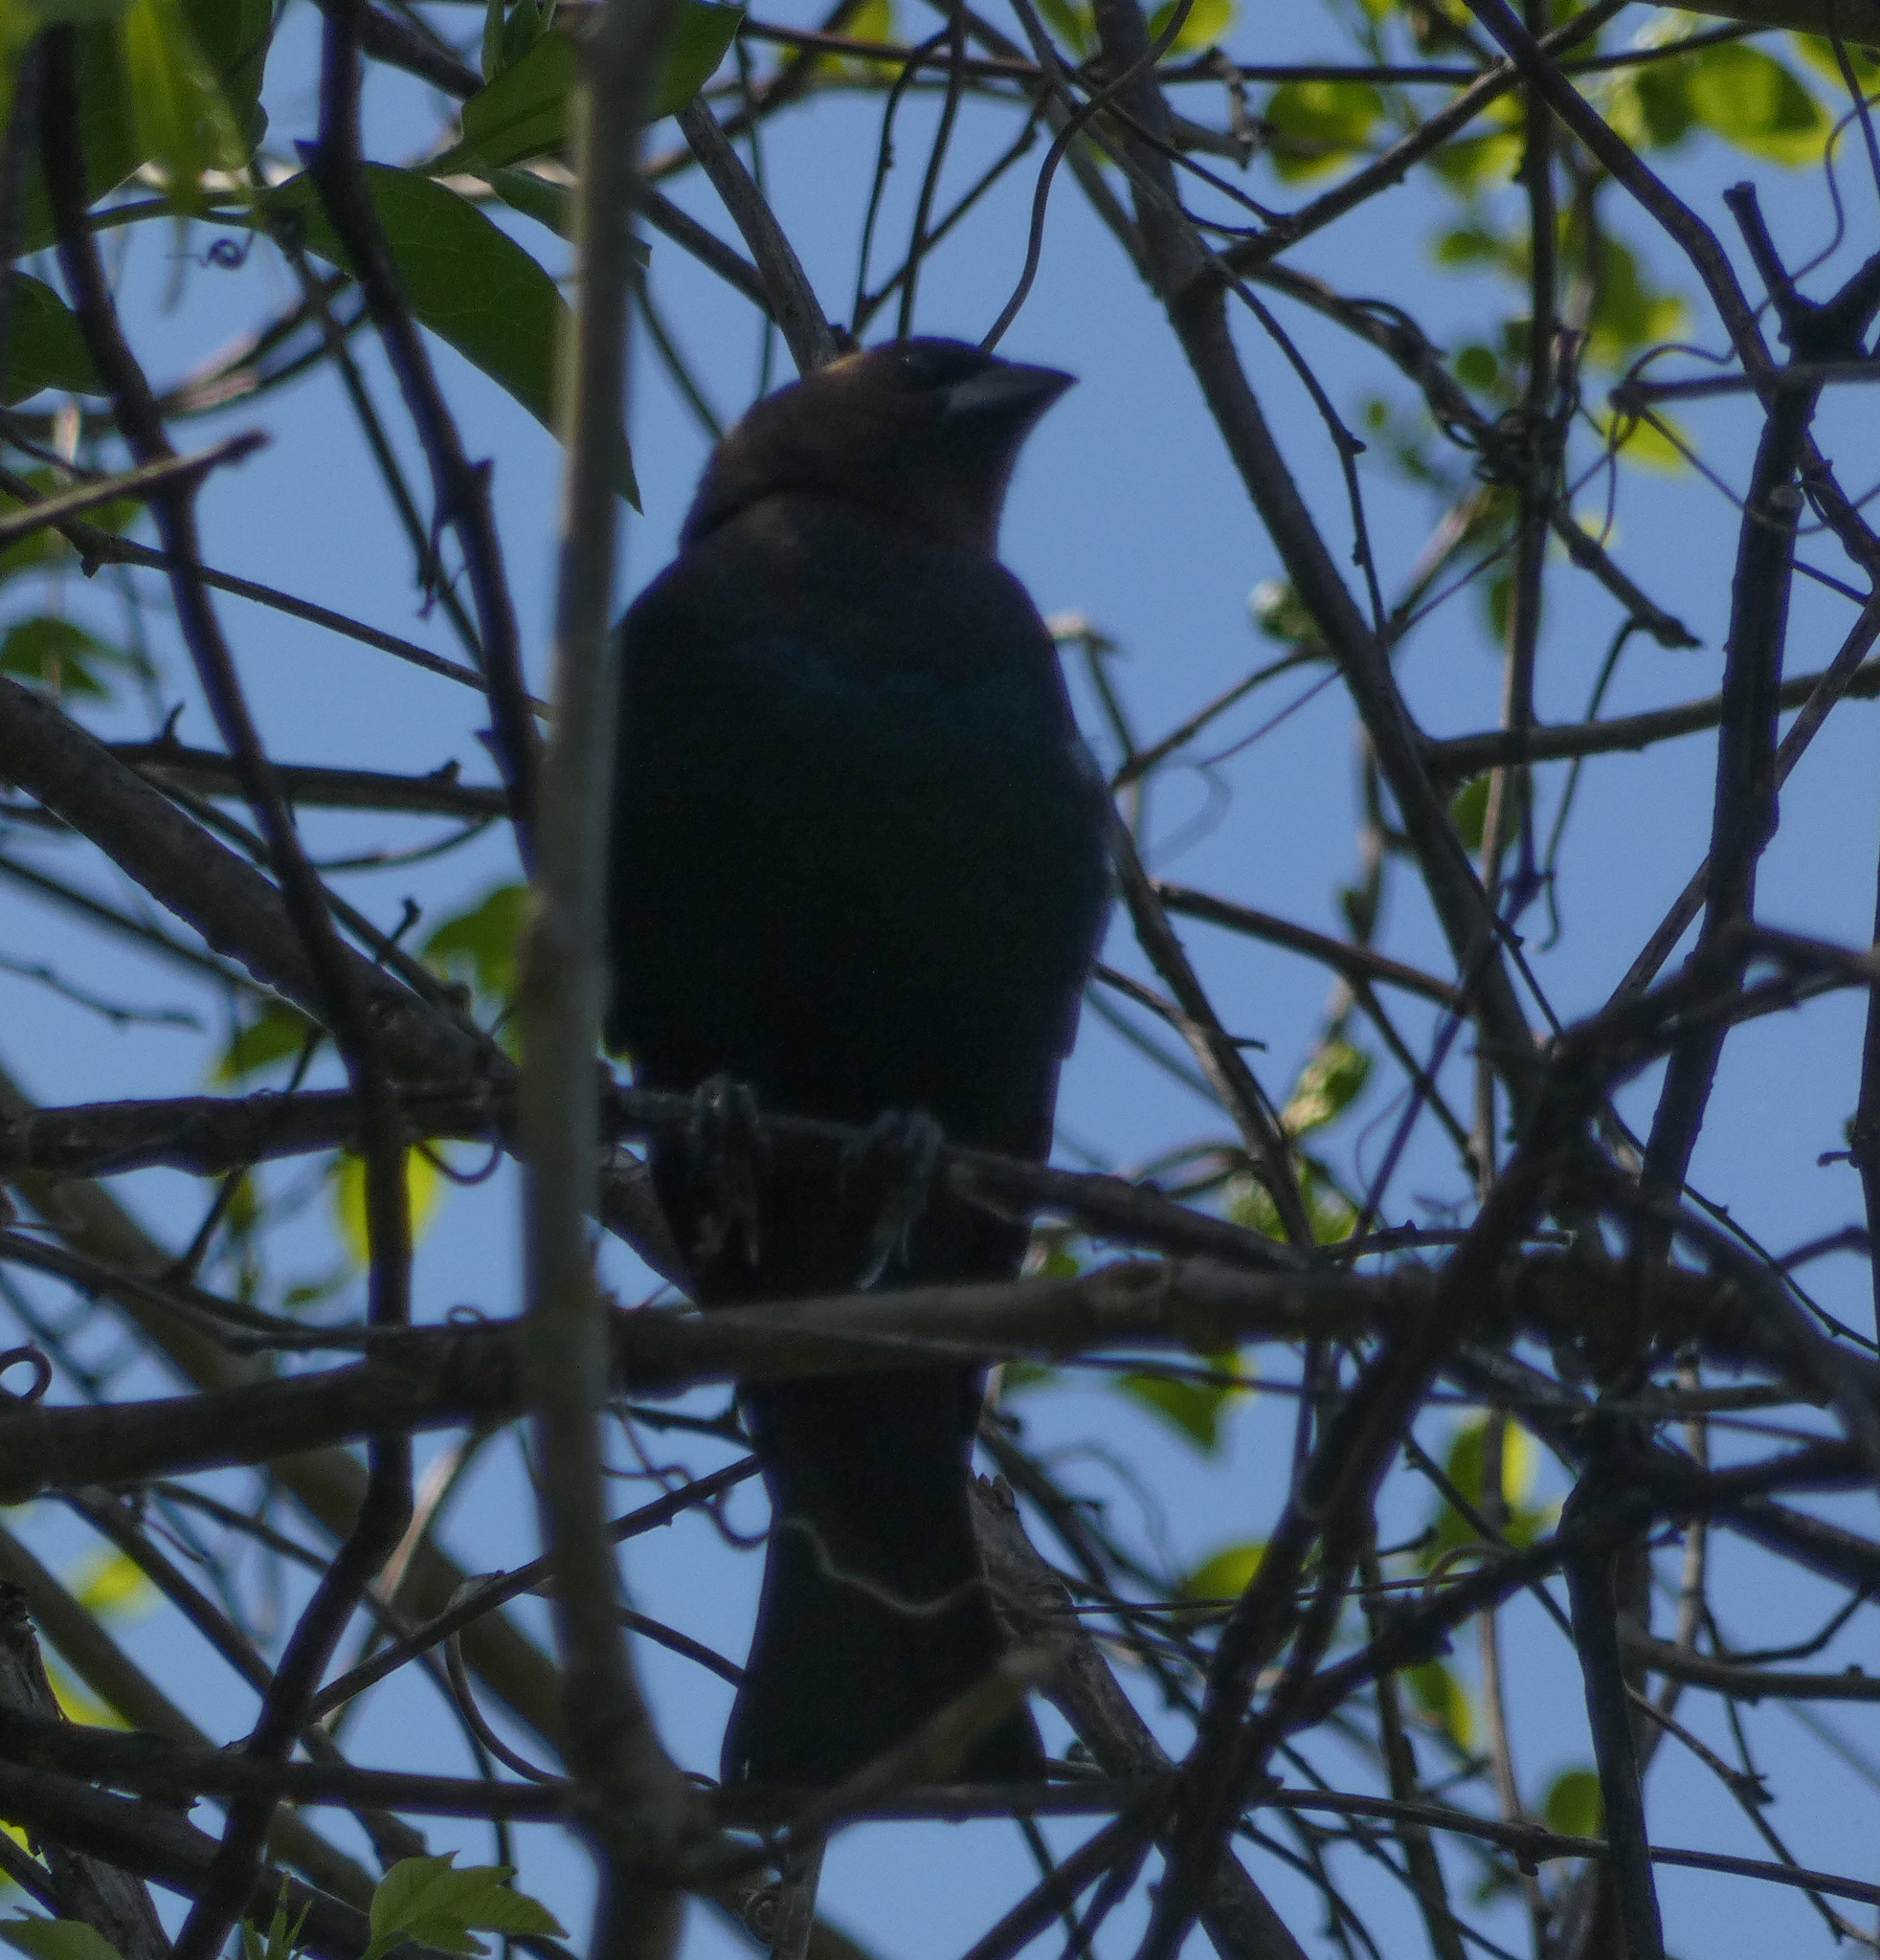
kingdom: Animalia
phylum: Chordata
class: Aves
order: Passeriformes
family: Icteridae
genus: Molothrus
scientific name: Molothrus ater
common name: Brown-headed cowbird
